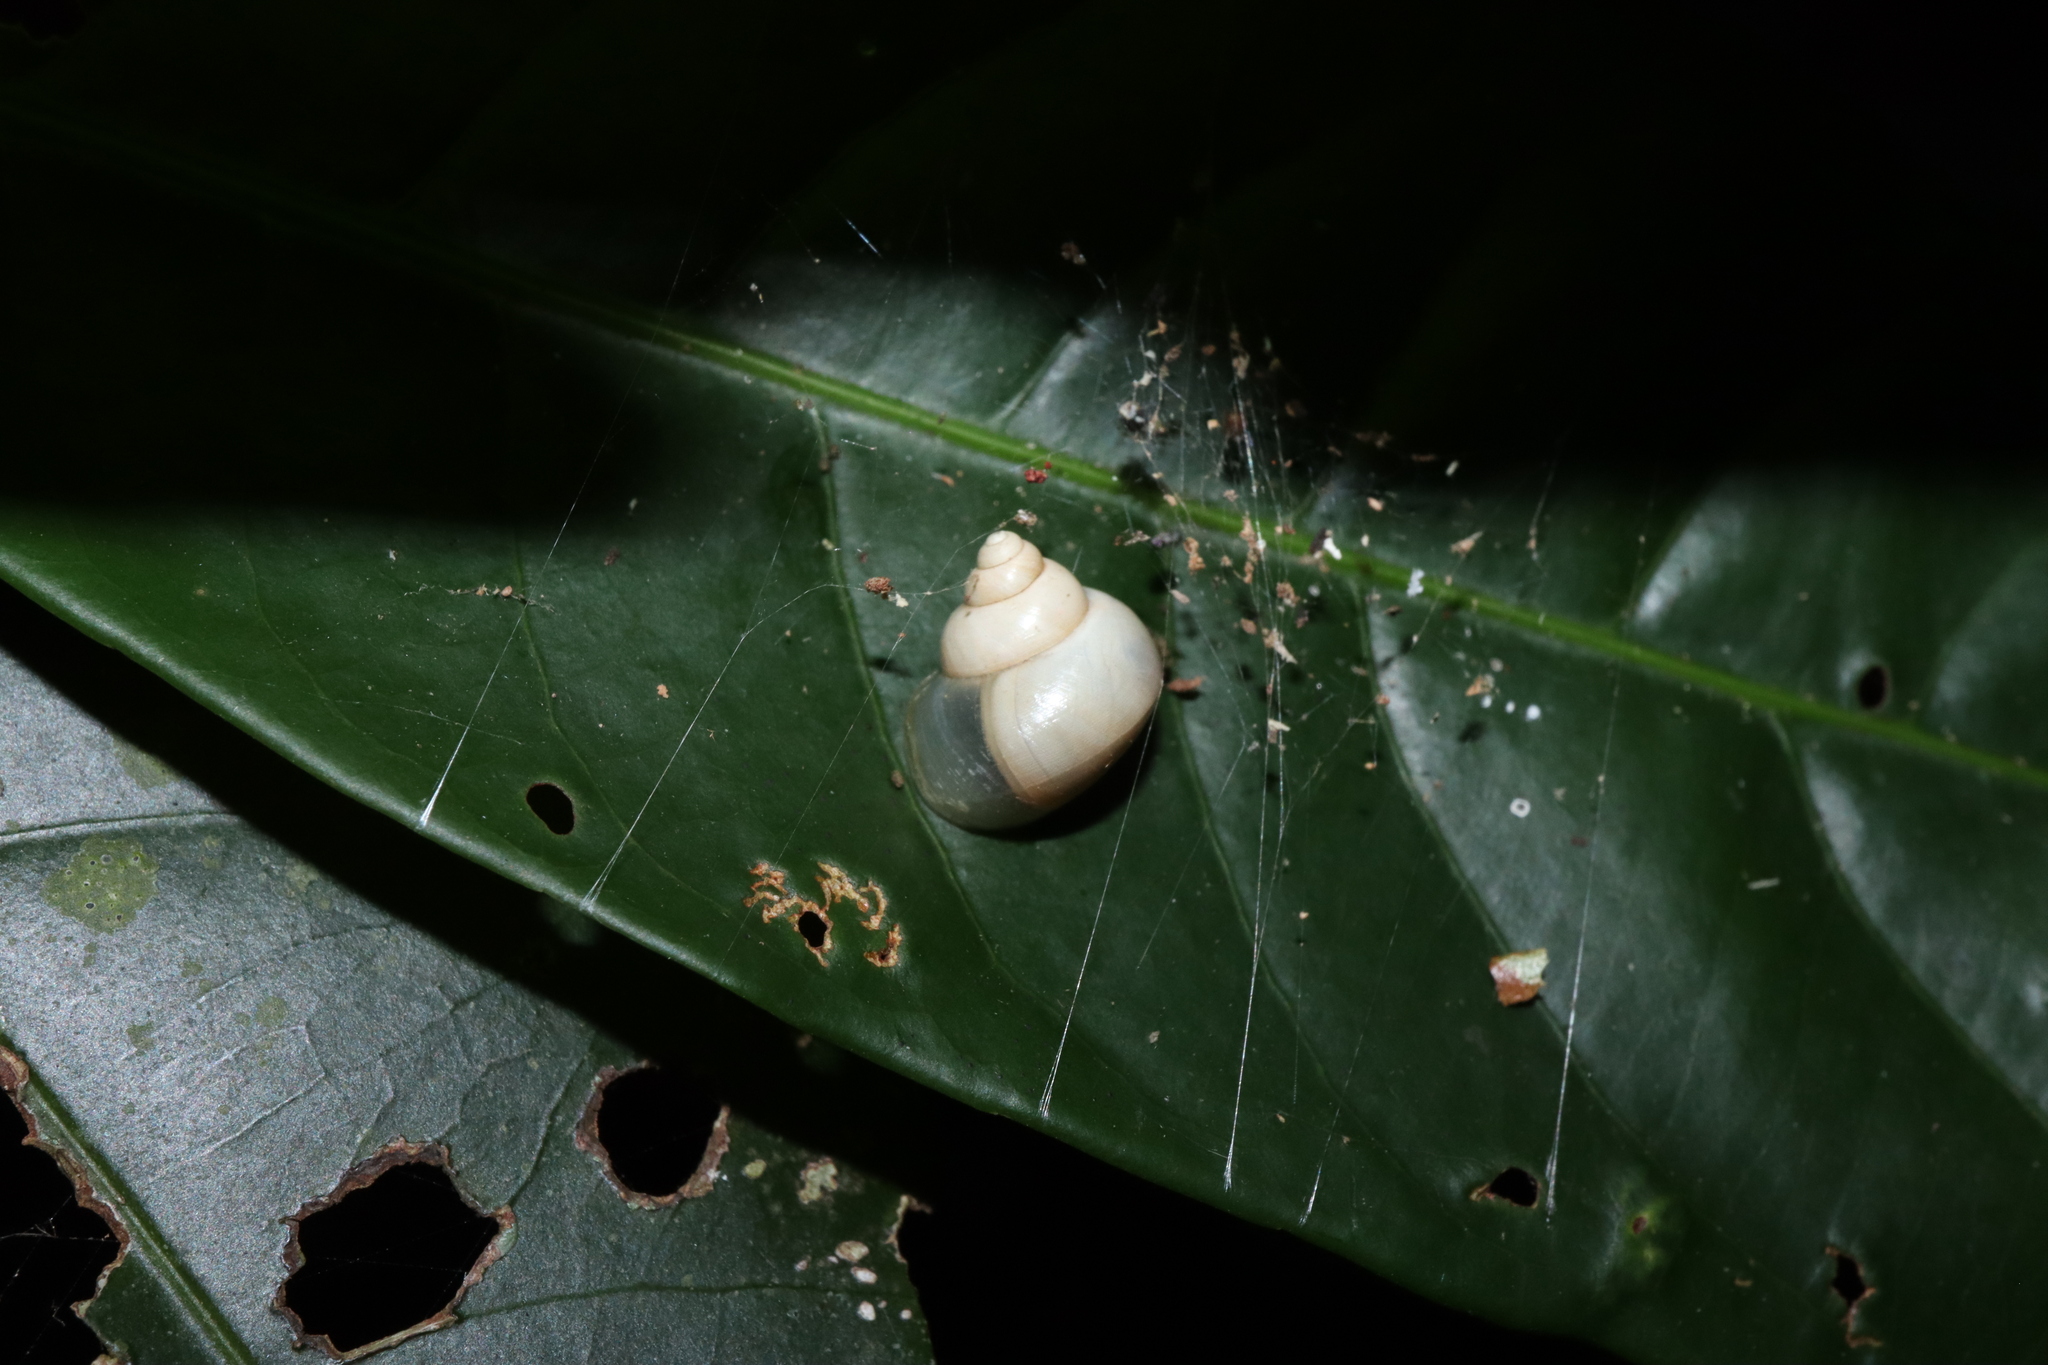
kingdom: Animalia
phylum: Mollusca
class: Gastropoda
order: Architaenioglossa
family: Cyclophoridae
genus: Leptopoma
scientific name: Leptopoma perlucidum
